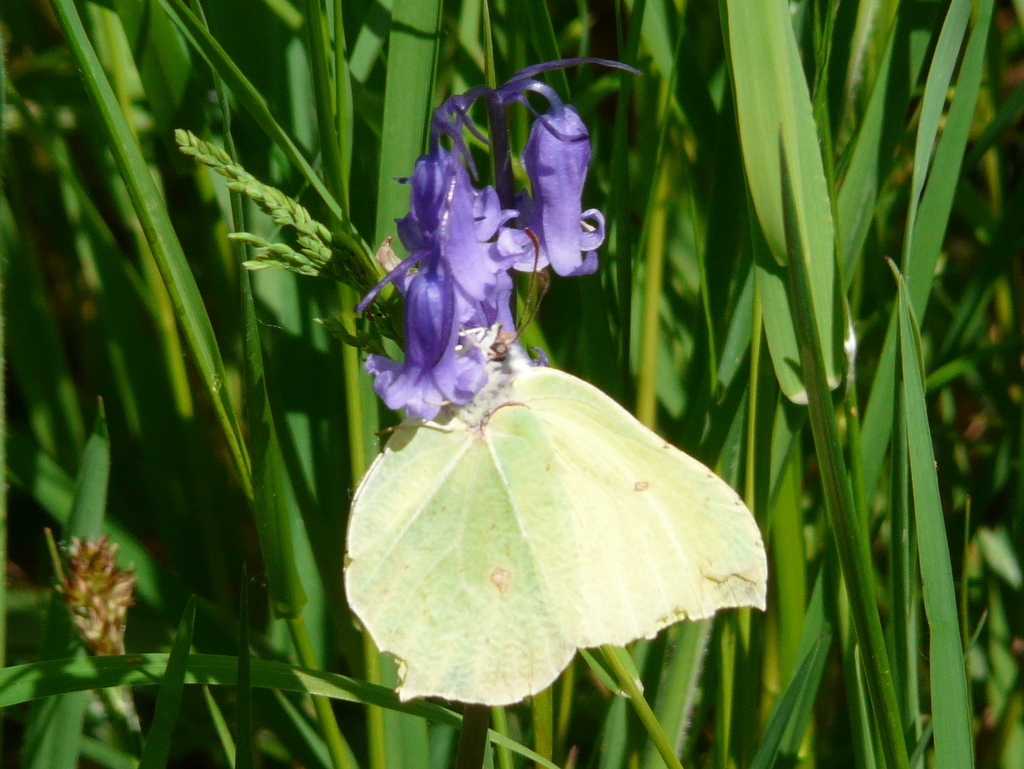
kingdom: Animalia
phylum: Arthropoda
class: Insecta
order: Lepidoptera
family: Pieridae
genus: Gonepteryx
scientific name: Gonepteryx rhamni
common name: Brimstone
